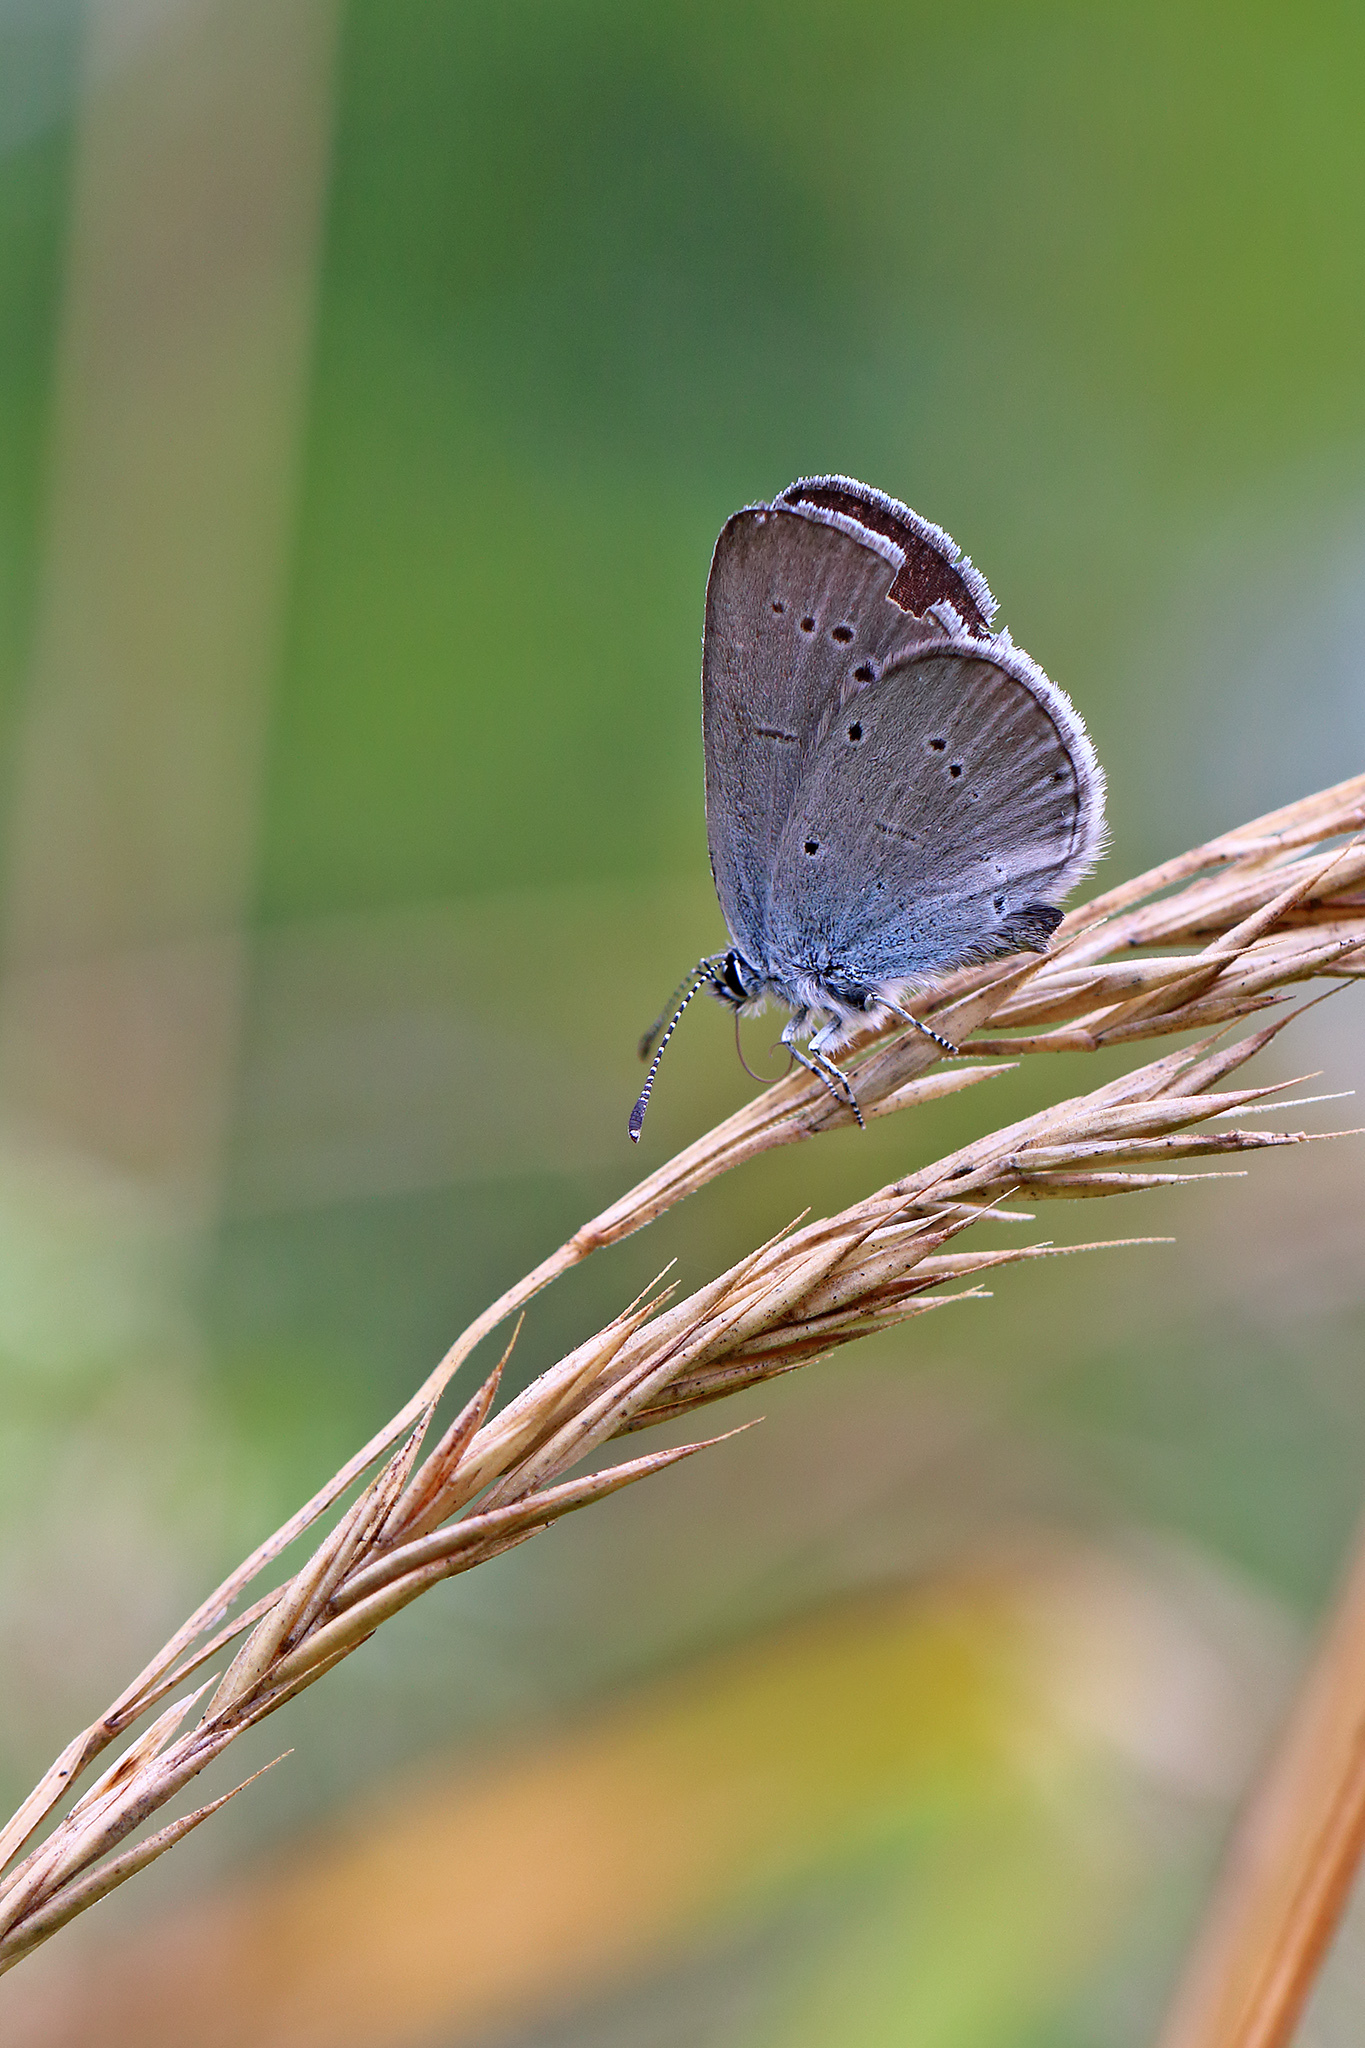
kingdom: Animalia
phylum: Arthropoda
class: Insecta
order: Lepidoptera
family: Lycaenidae
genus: Cupido
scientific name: Cupido minimus
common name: Small blue
